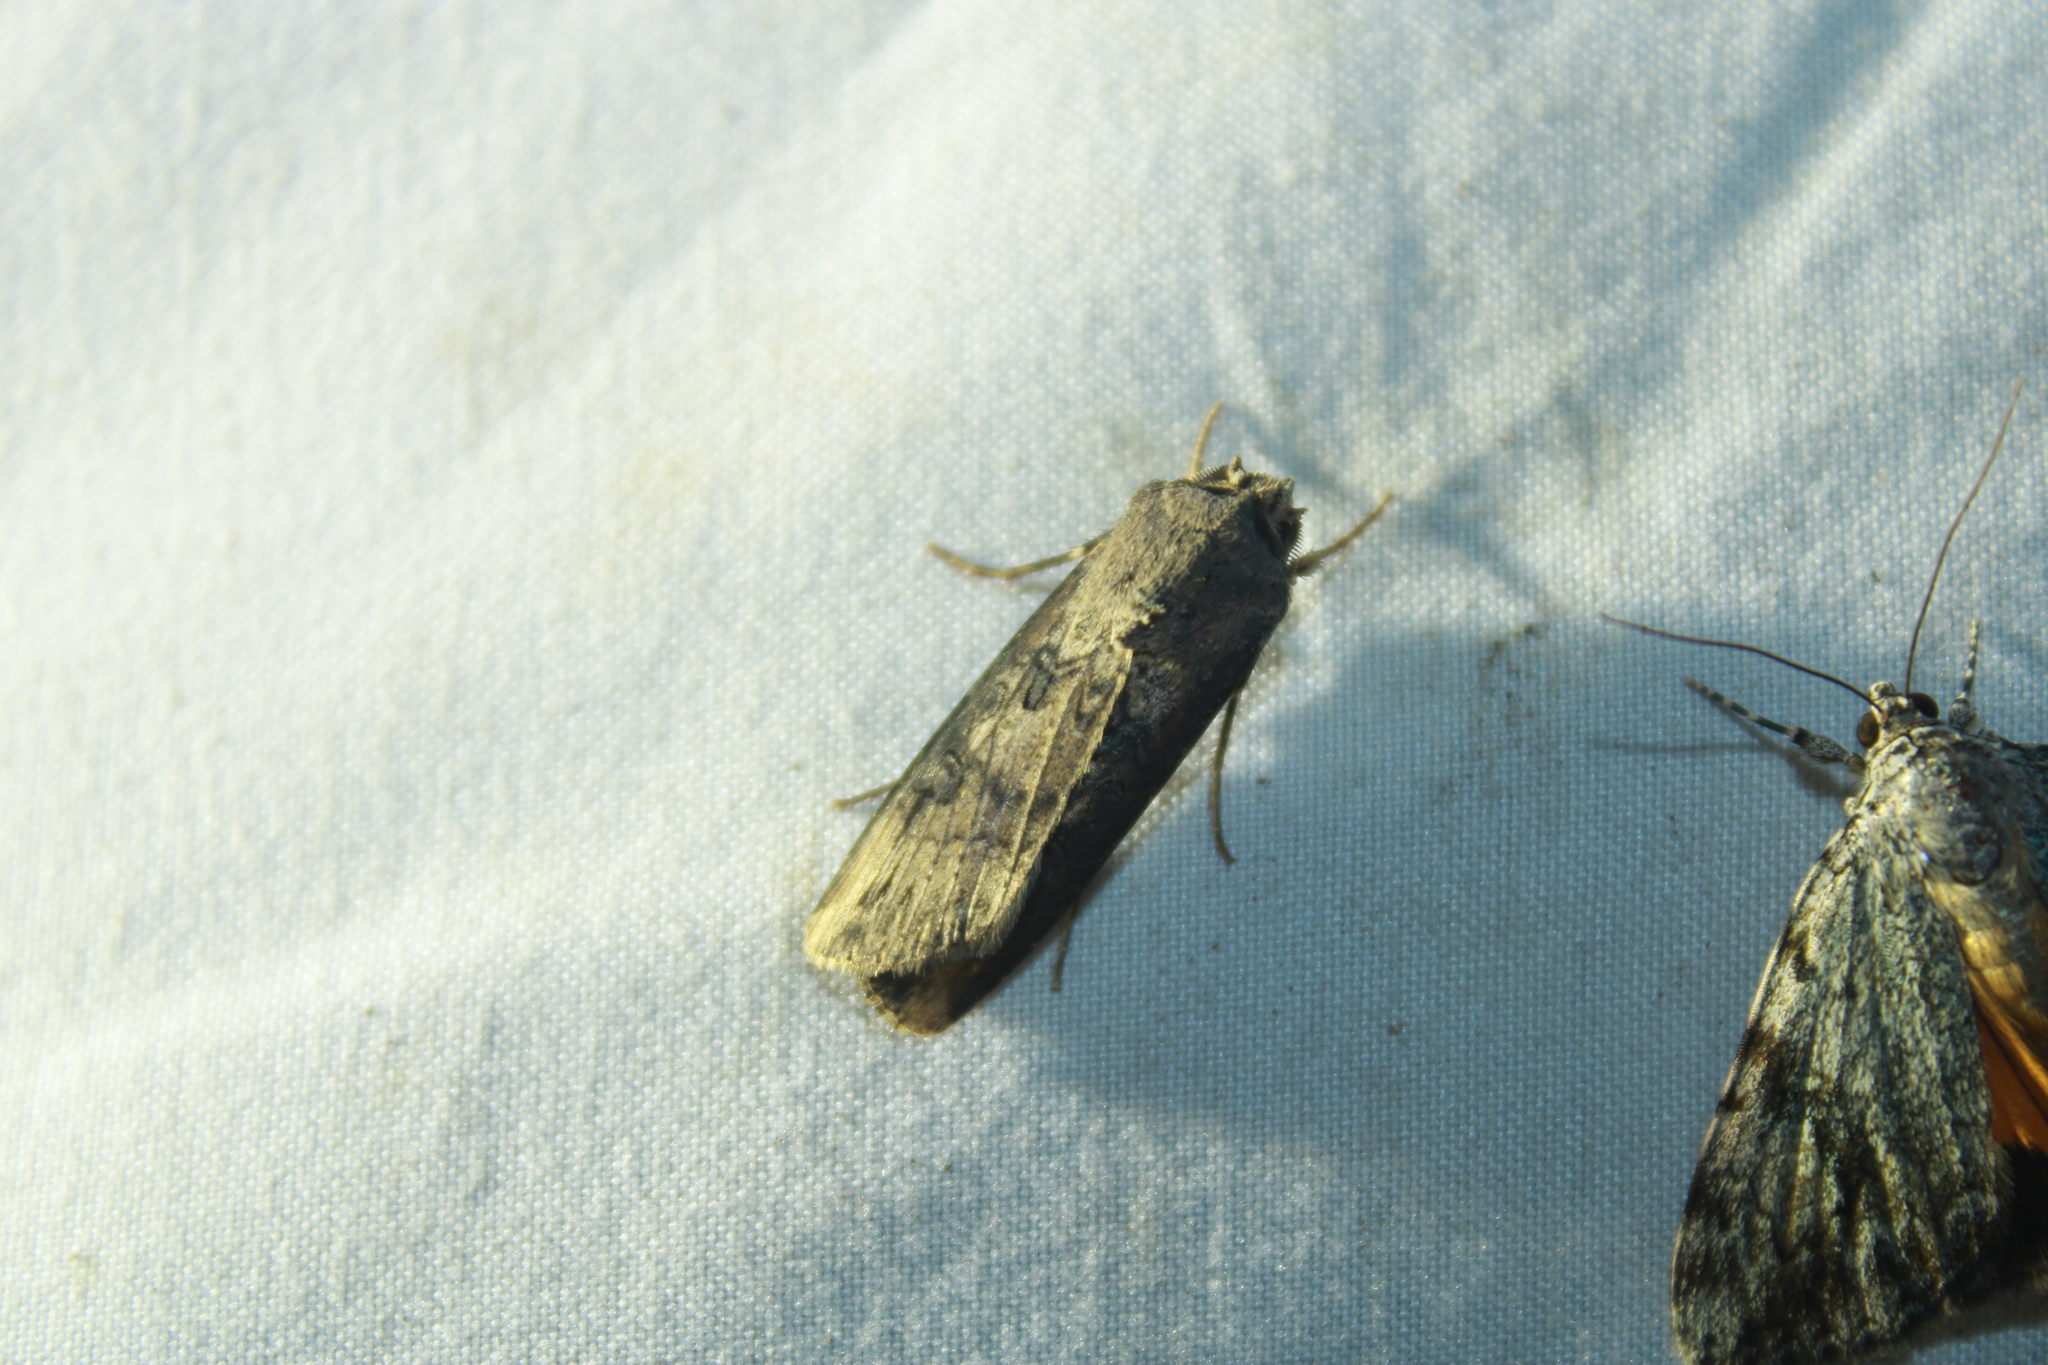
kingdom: Animalia
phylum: Arthropoda
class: Insecta
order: Lepidoptera
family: Noctuidae
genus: Agrotis
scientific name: Agrotis ipsilon
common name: Dark sword-grass
